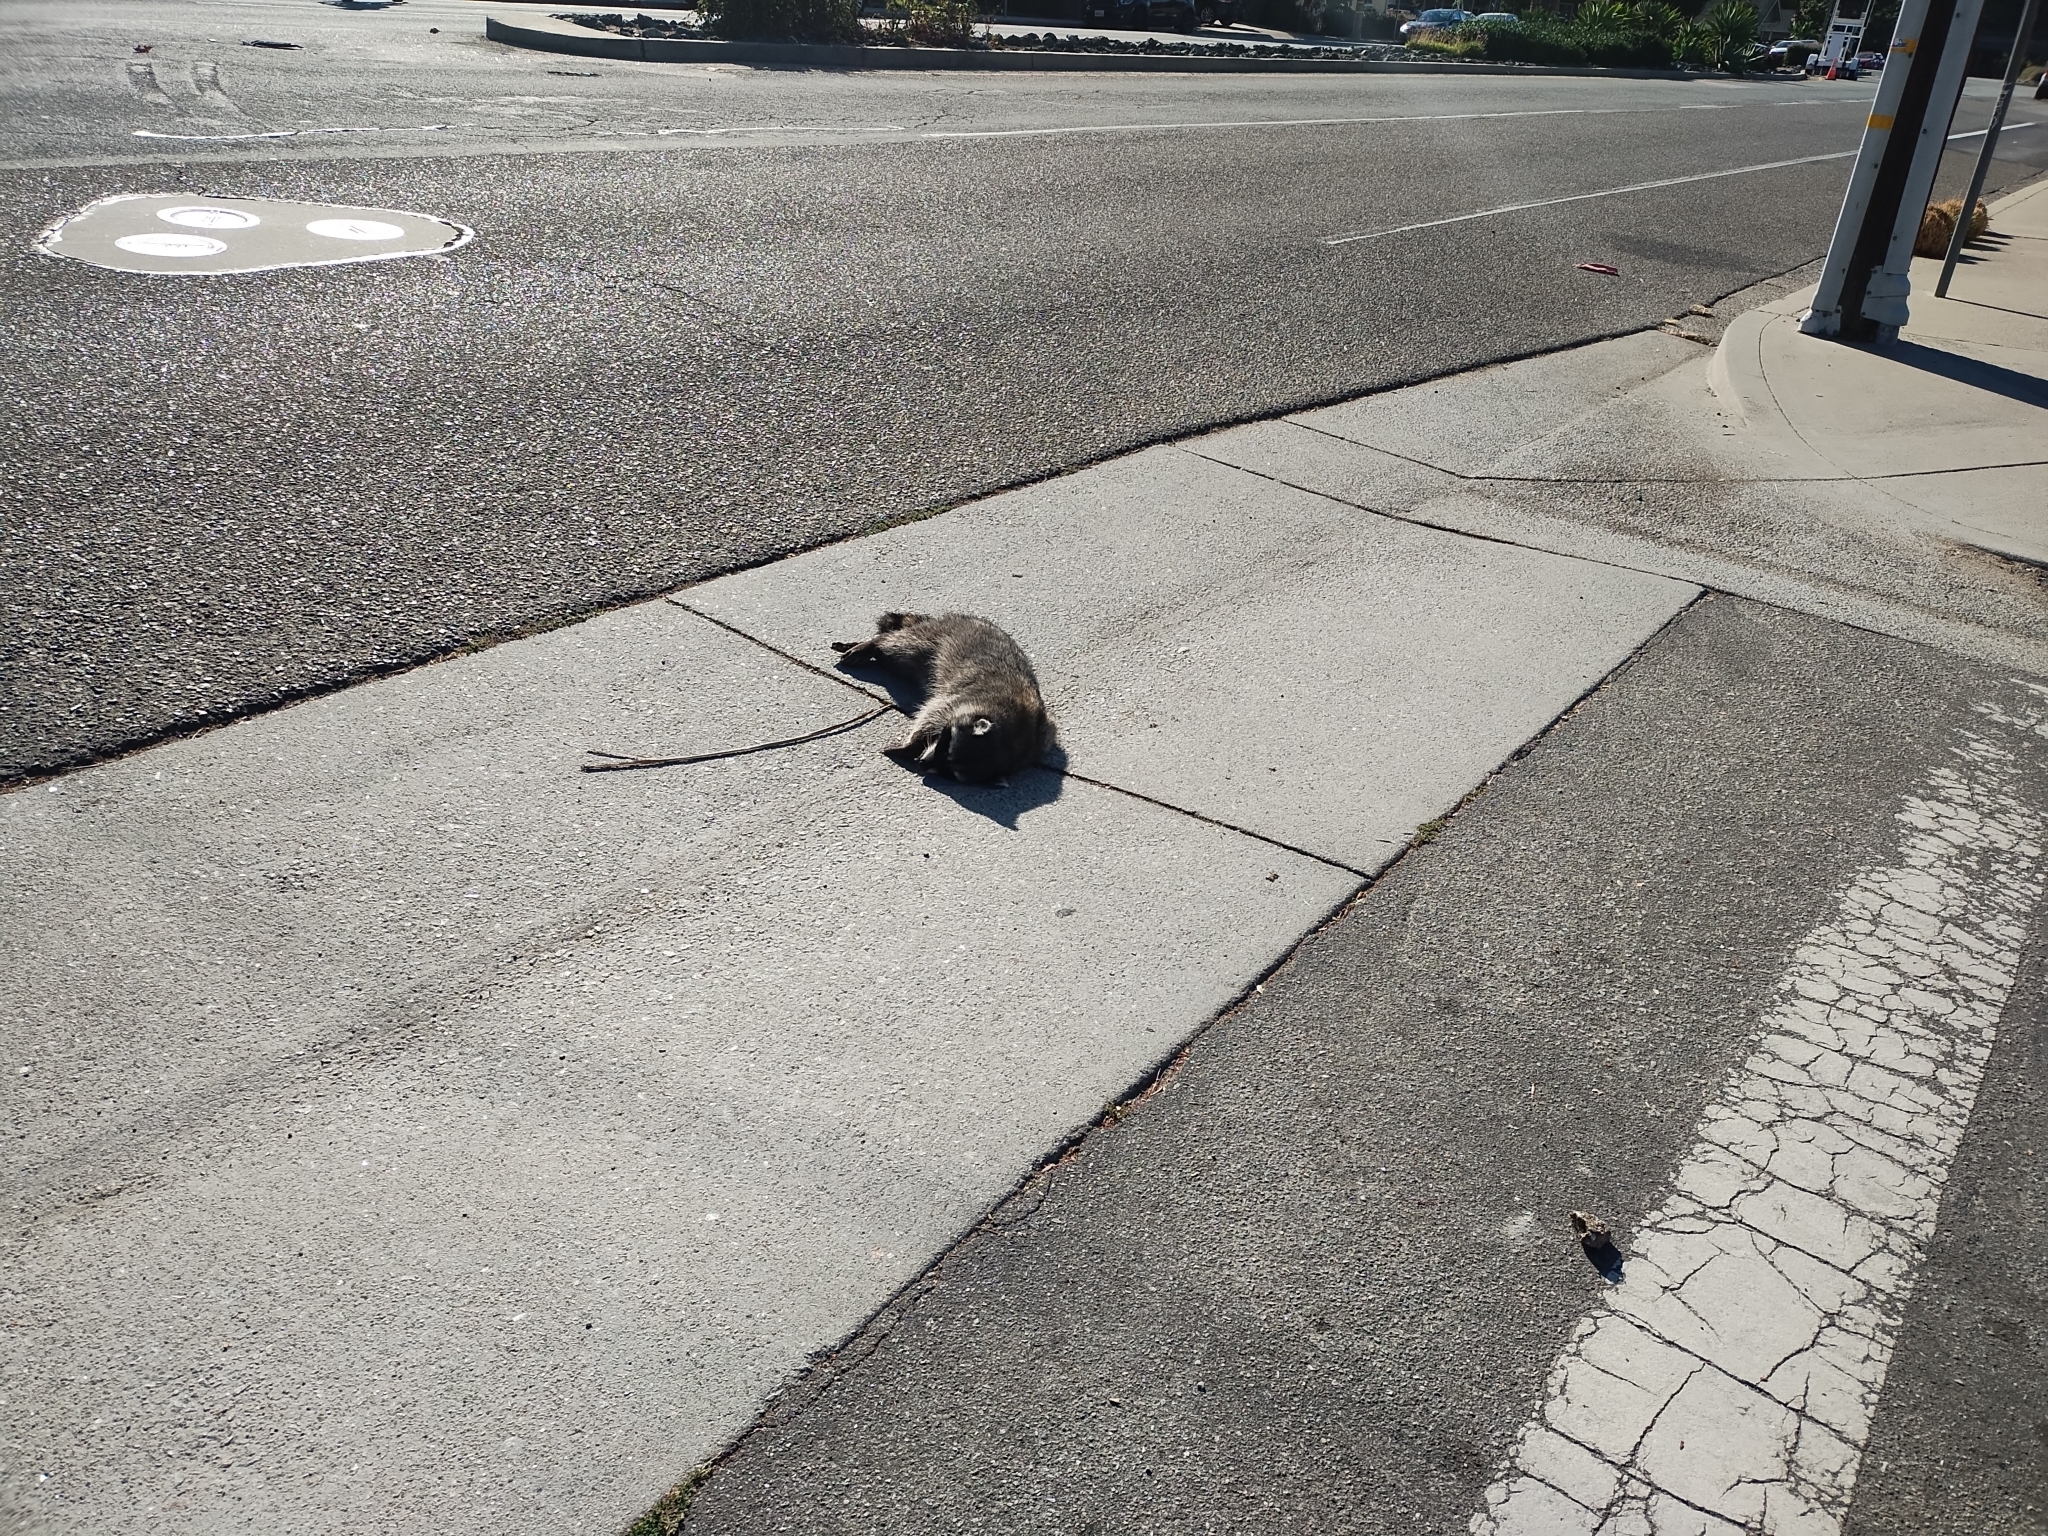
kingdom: Animalia
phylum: Chordata
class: Mammalia
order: Carnivora
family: Procyonidae
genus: Procyon
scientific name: Procyon lotor
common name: Raccoon
